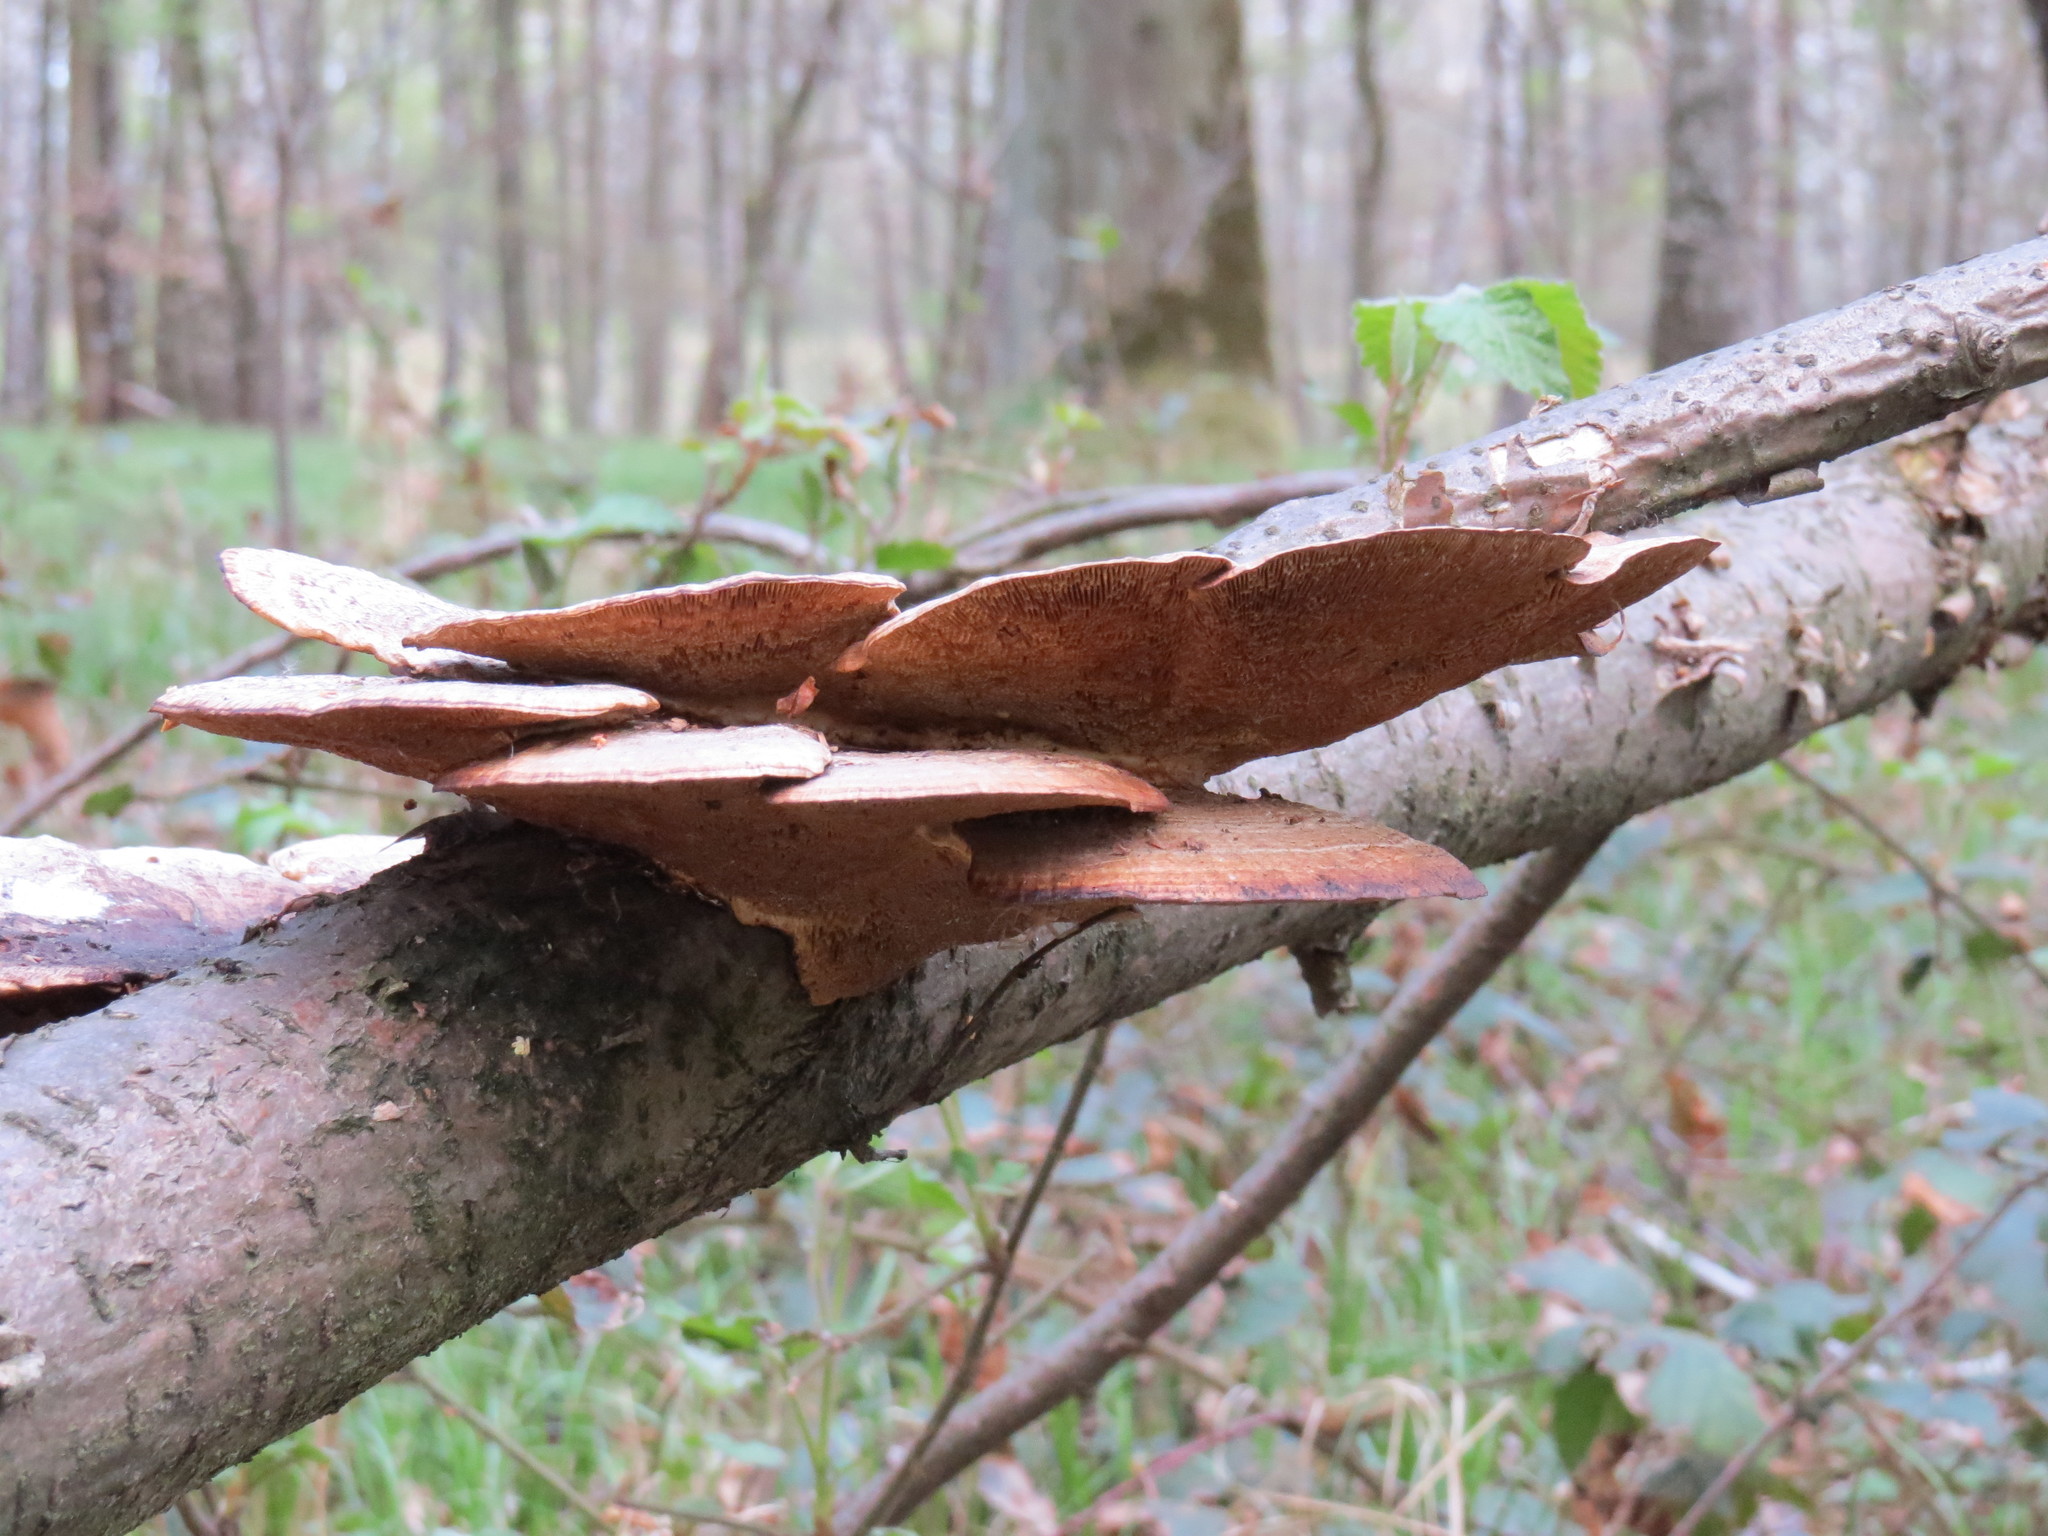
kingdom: Fungi
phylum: Basidiomycota
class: Agaricomycetes
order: Polyporales
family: Polyporaceae
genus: Daedaleopsis
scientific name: Daedaleopsis confragosa
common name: Blushing bracket
